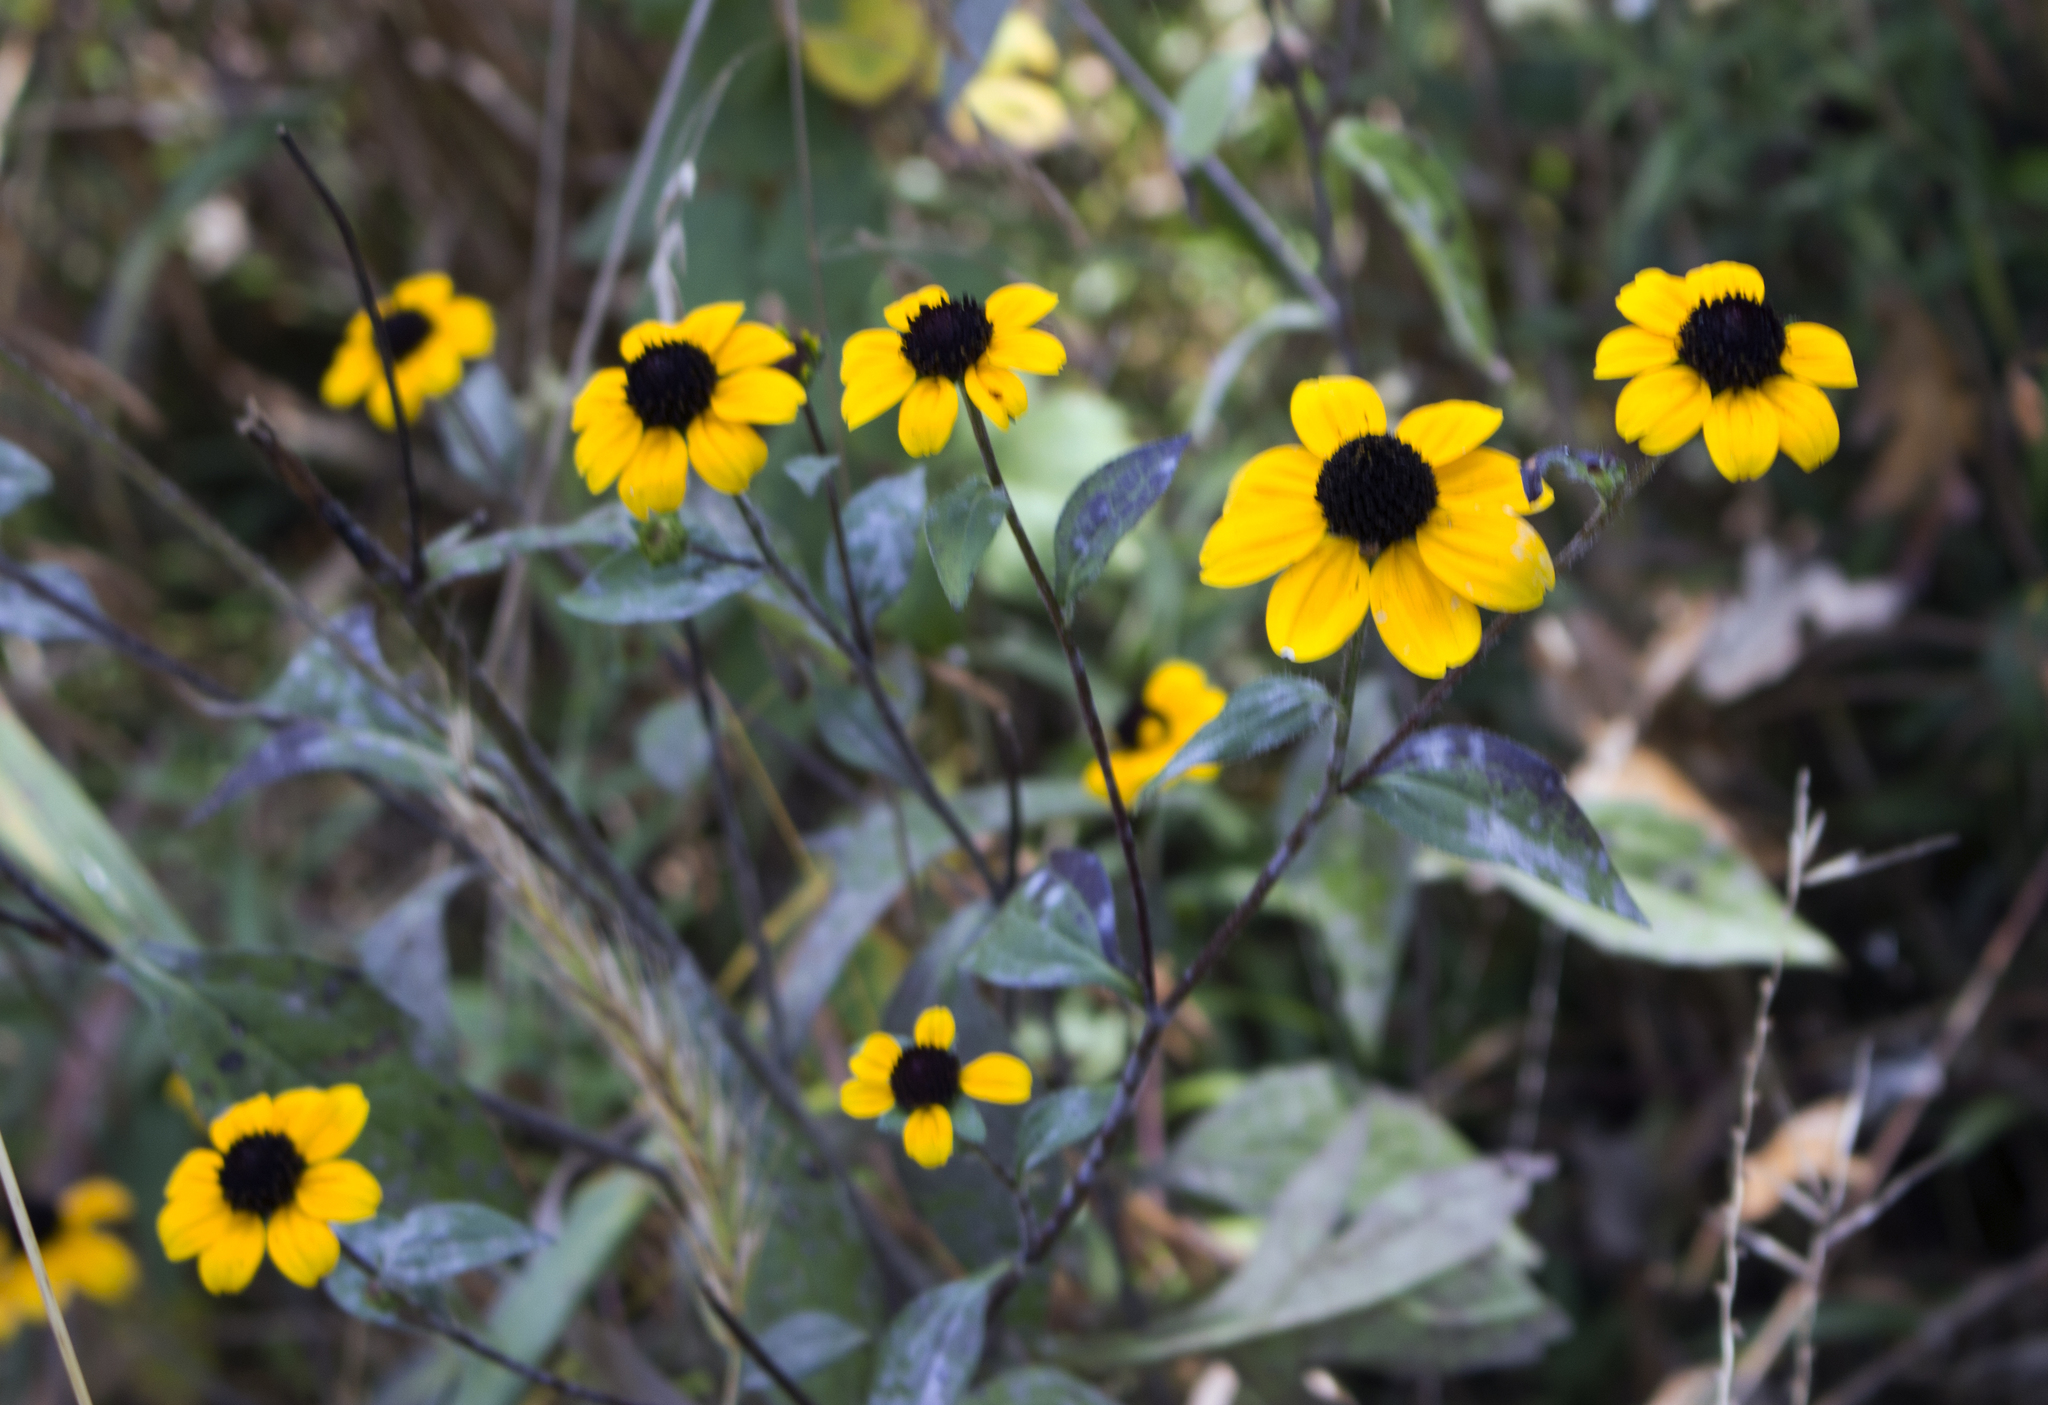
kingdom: Plantae
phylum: Tracheophyta
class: Magnoliopsida
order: Asterales
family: Asteraceae
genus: Rudbeckia
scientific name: Rudbeckia triloba
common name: Thin-leaved coneflower
